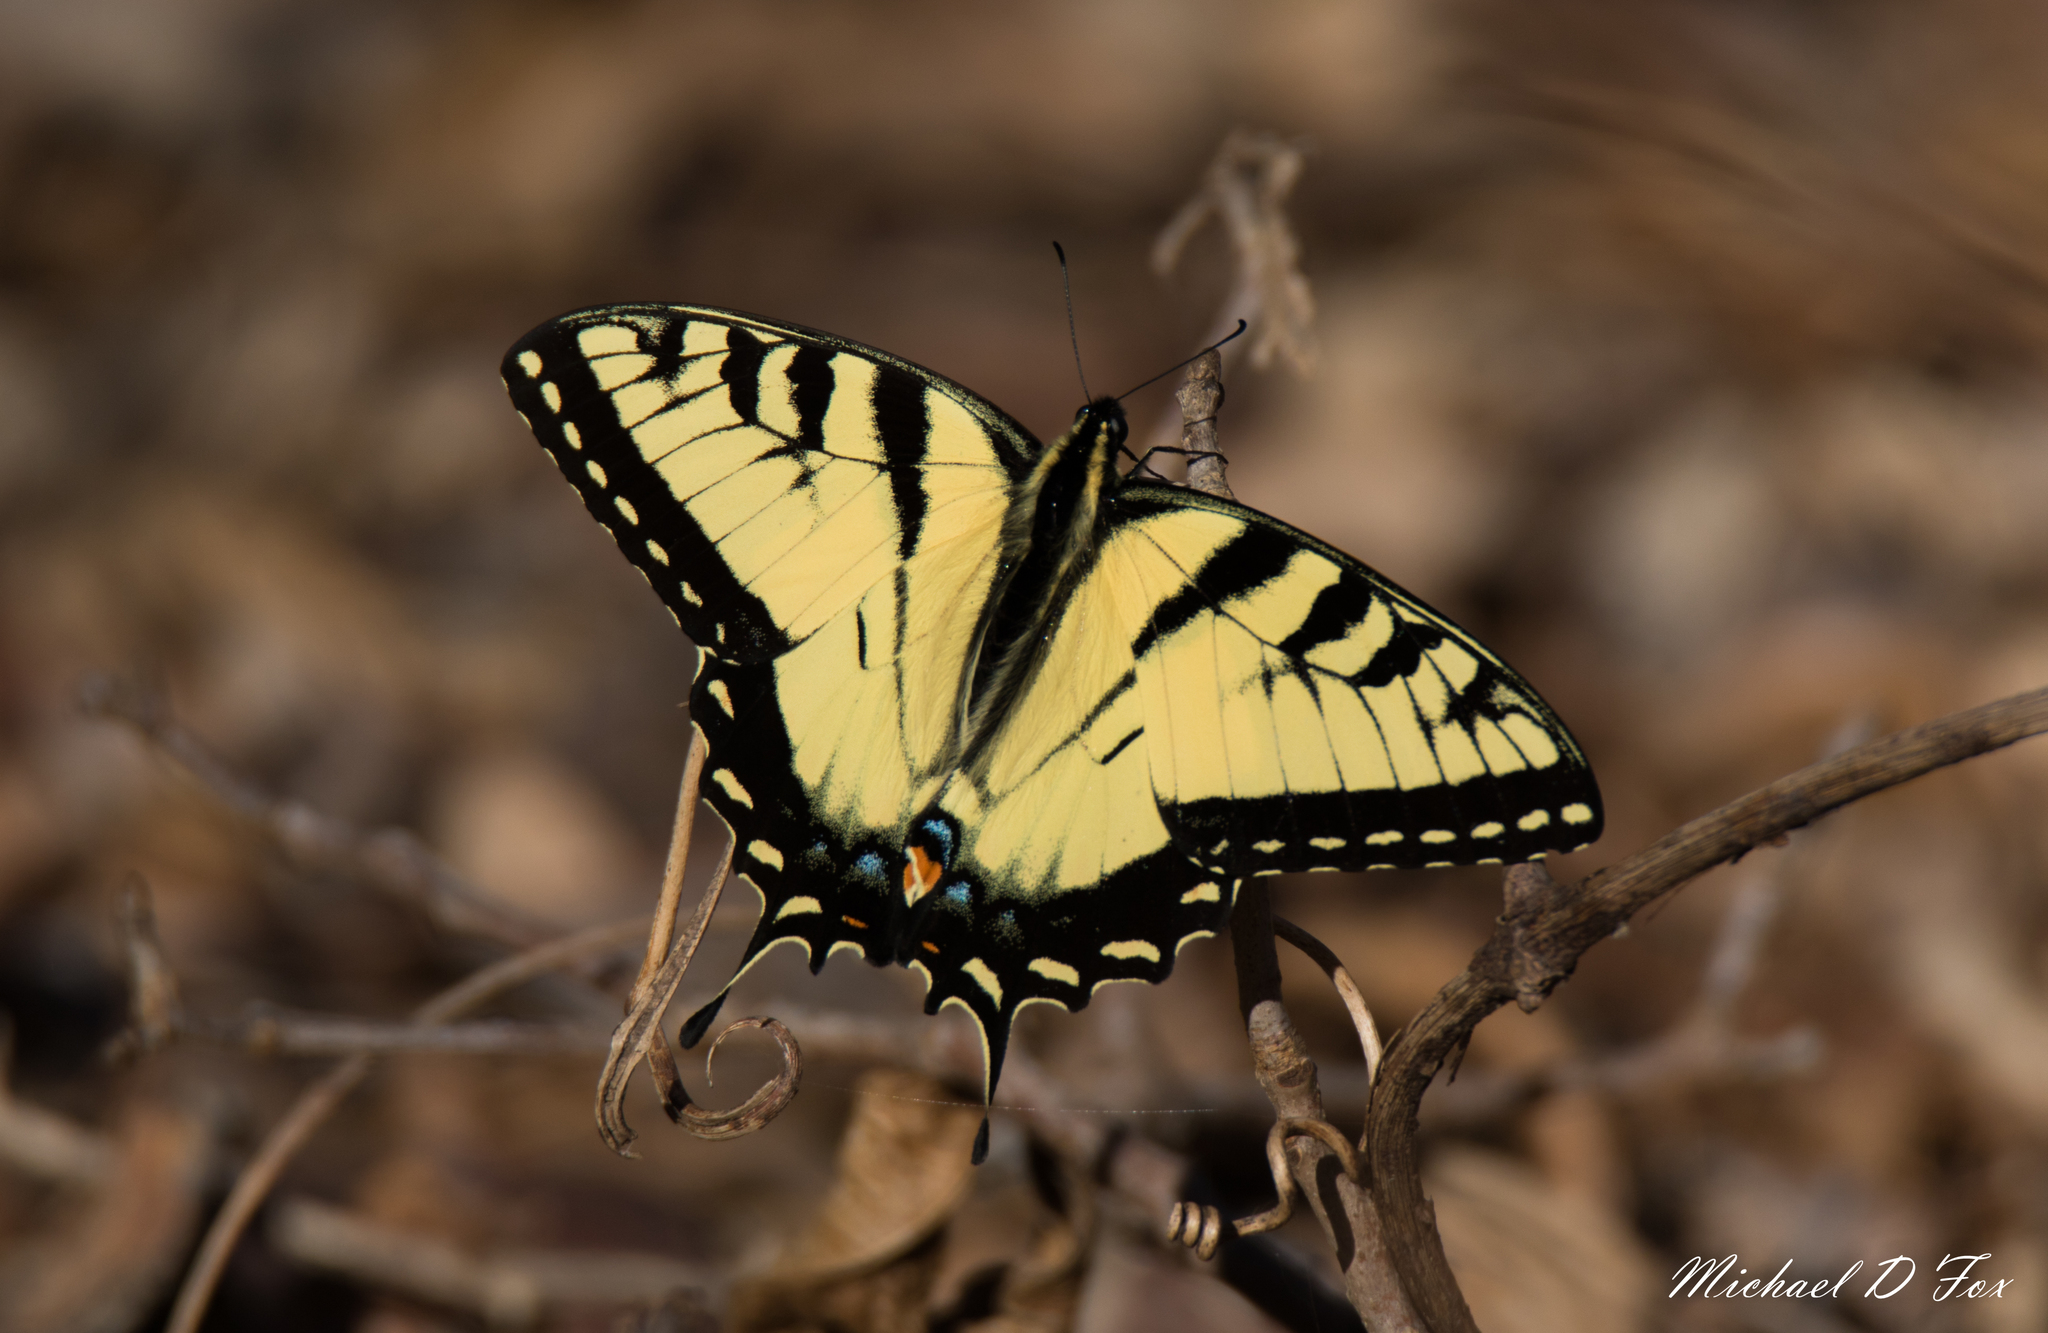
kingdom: Animalia
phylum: Arthropoda
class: Insecta
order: Lepidoptera
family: Papilionidae
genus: Papilio
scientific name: Papilio glaucus
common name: Tiger swallowtail
